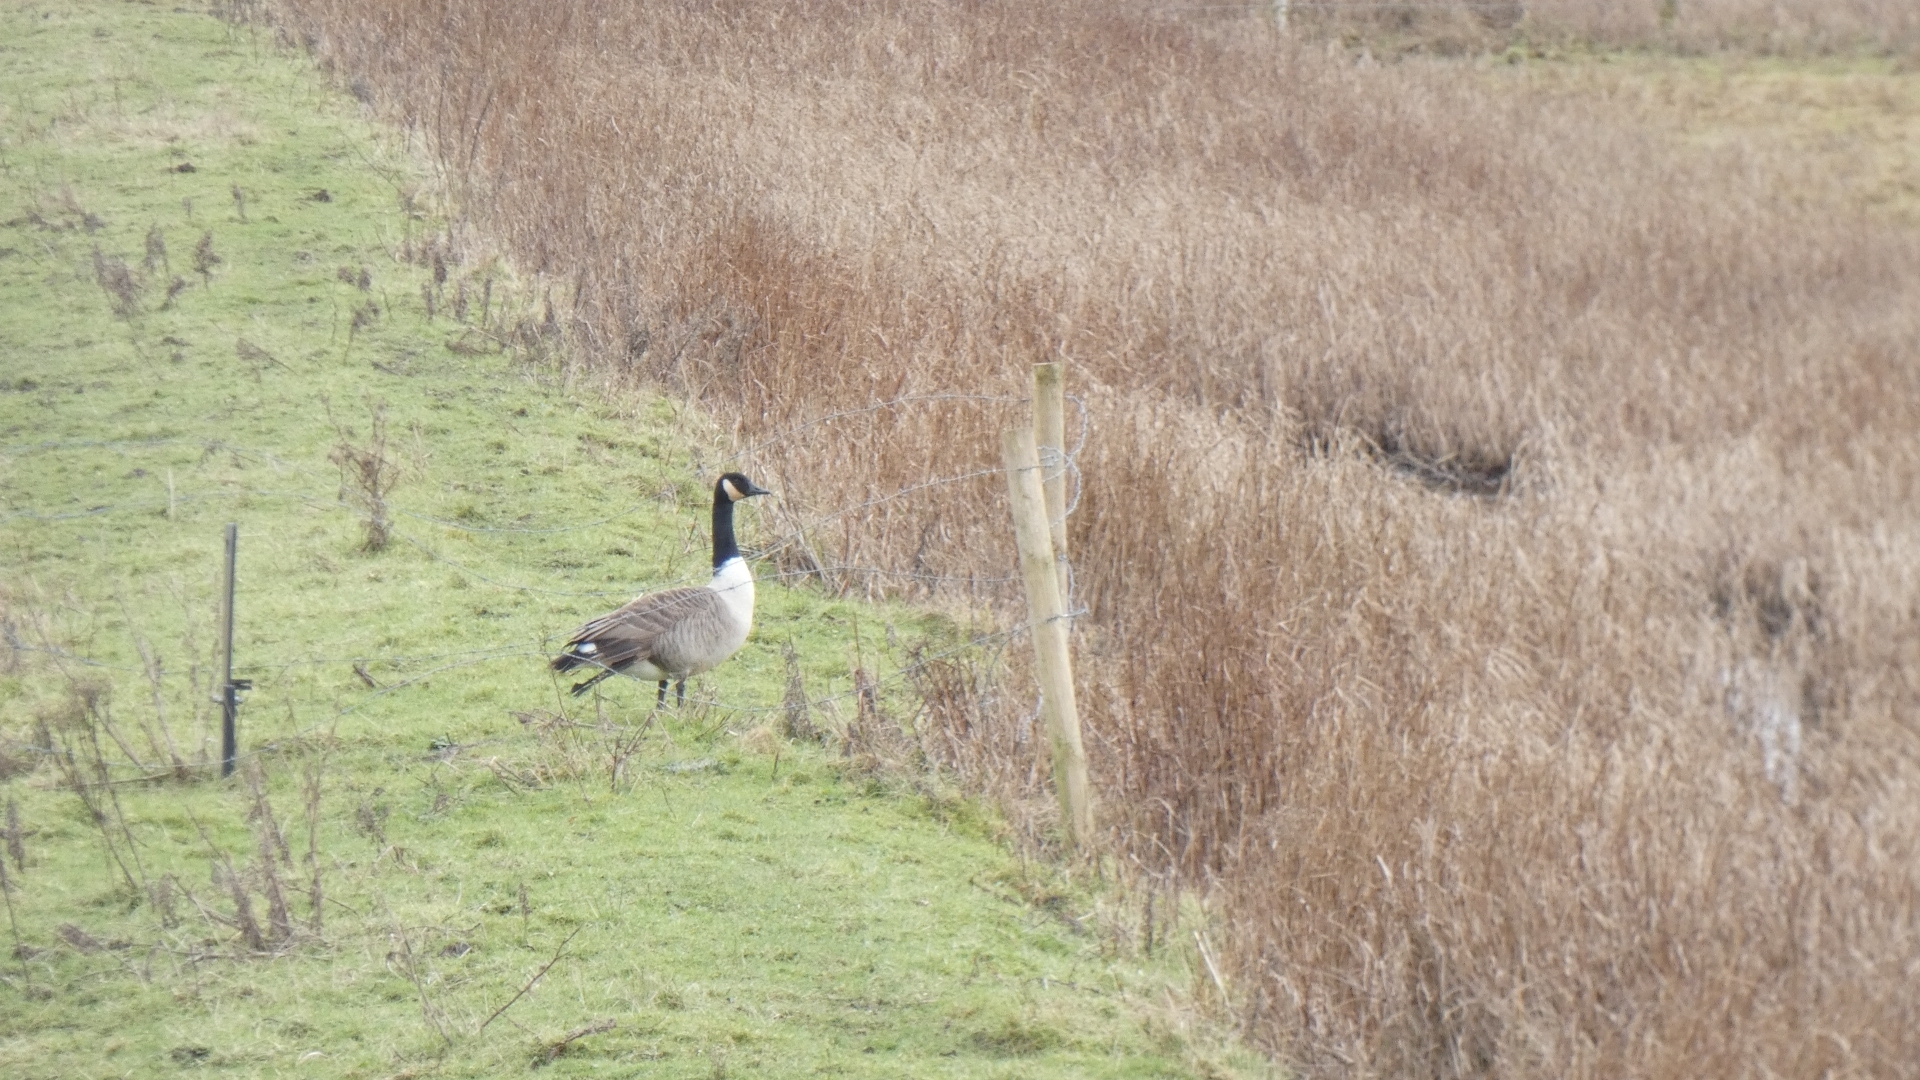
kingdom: Animalia
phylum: Chordata
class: Aves
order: Anseriformes
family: Anatidae
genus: Branta
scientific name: Branta canadensis
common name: Canada goose
